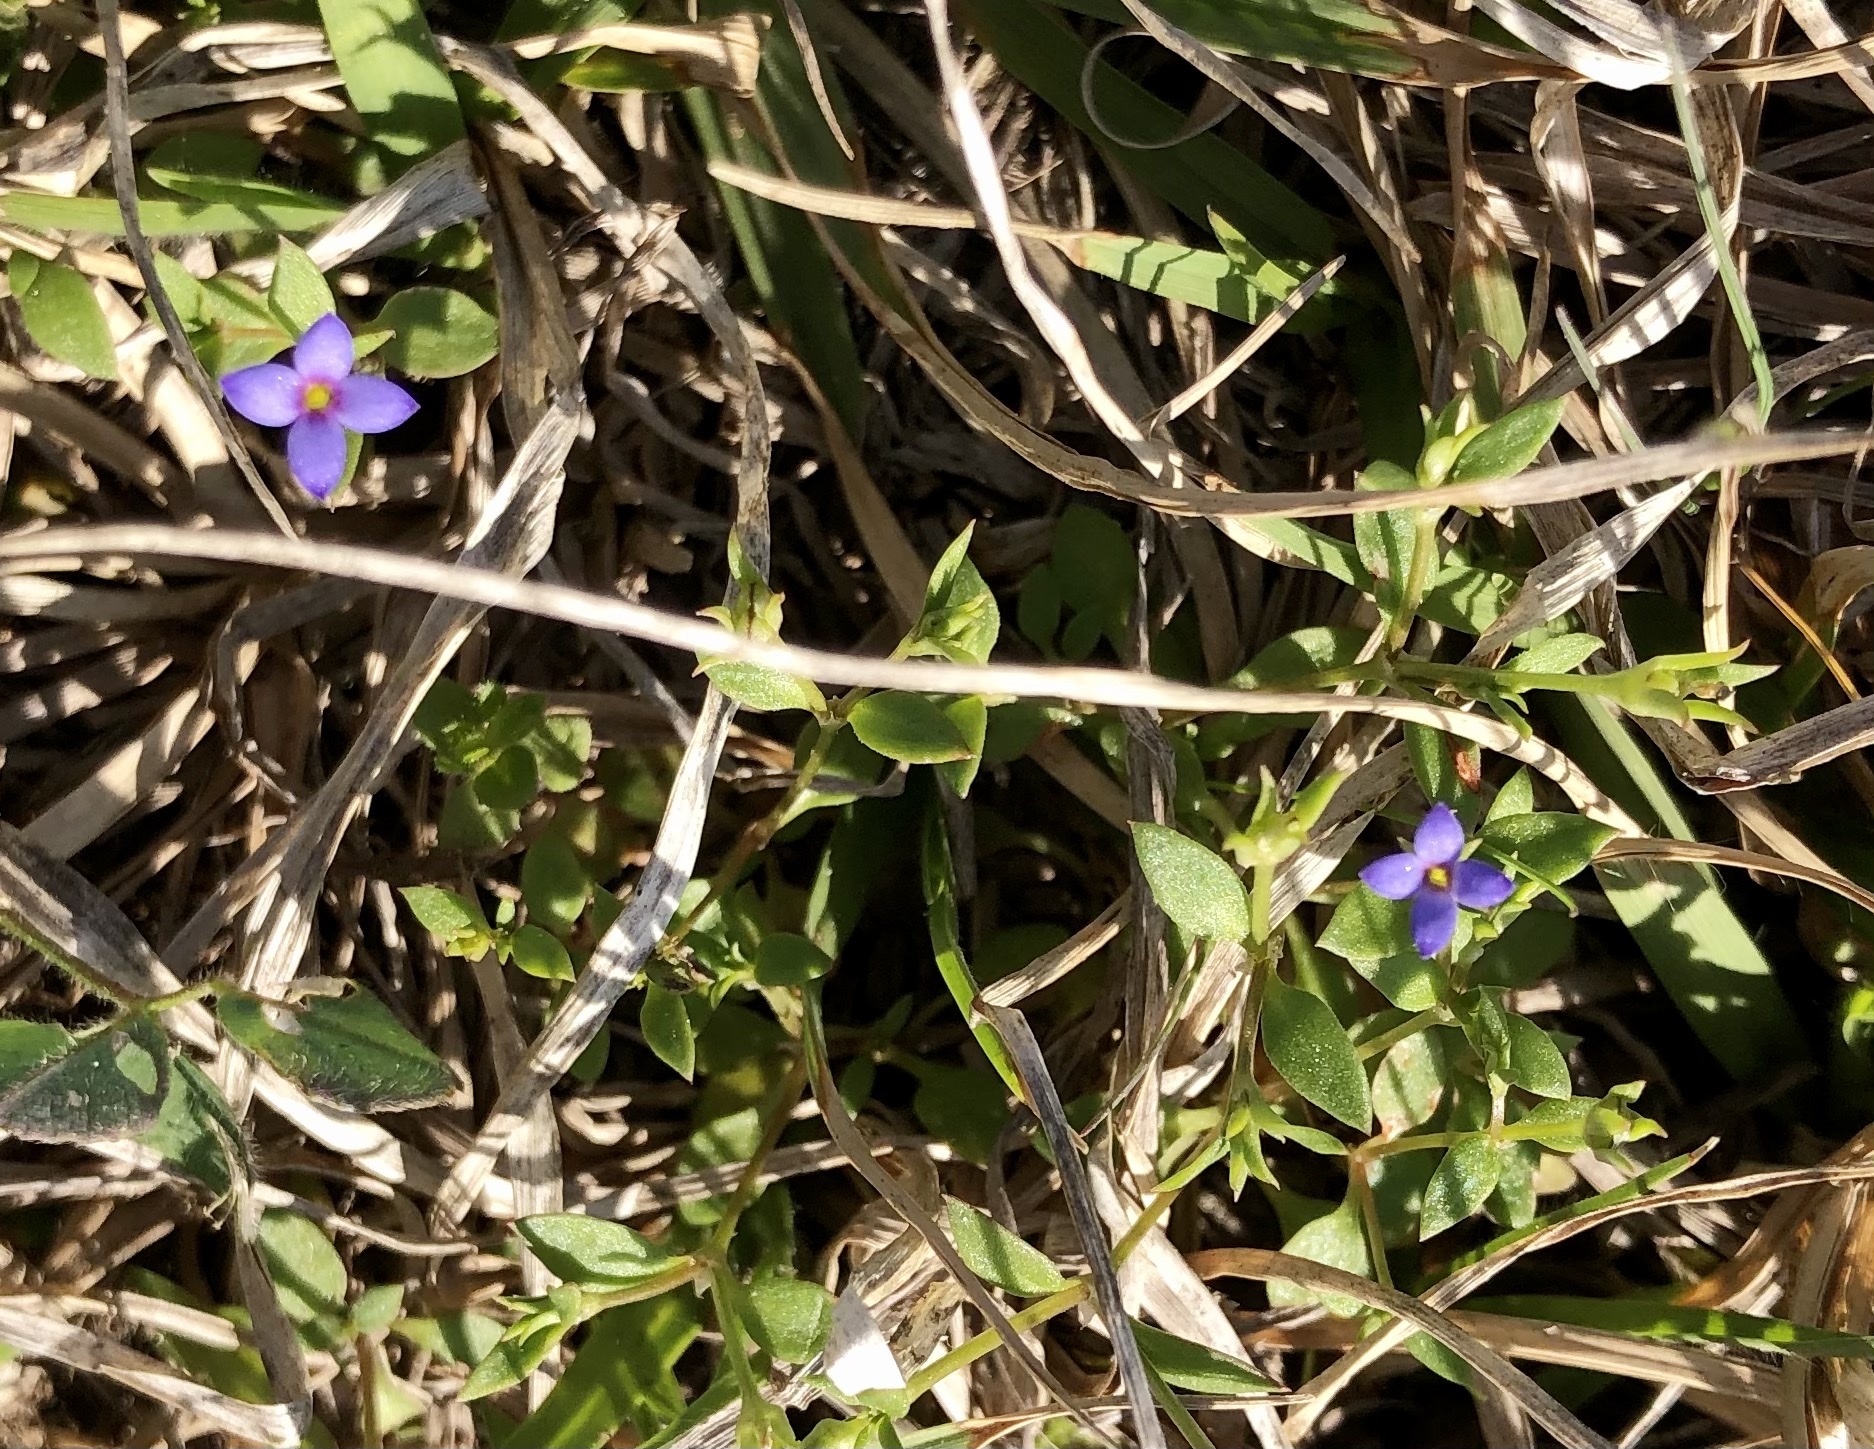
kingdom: Plantae
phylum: Tracheophyta
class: Magnoliopsida
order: Gentianales
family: Rubiaceae
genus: Houstonia
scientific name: Houstonia pusilla
